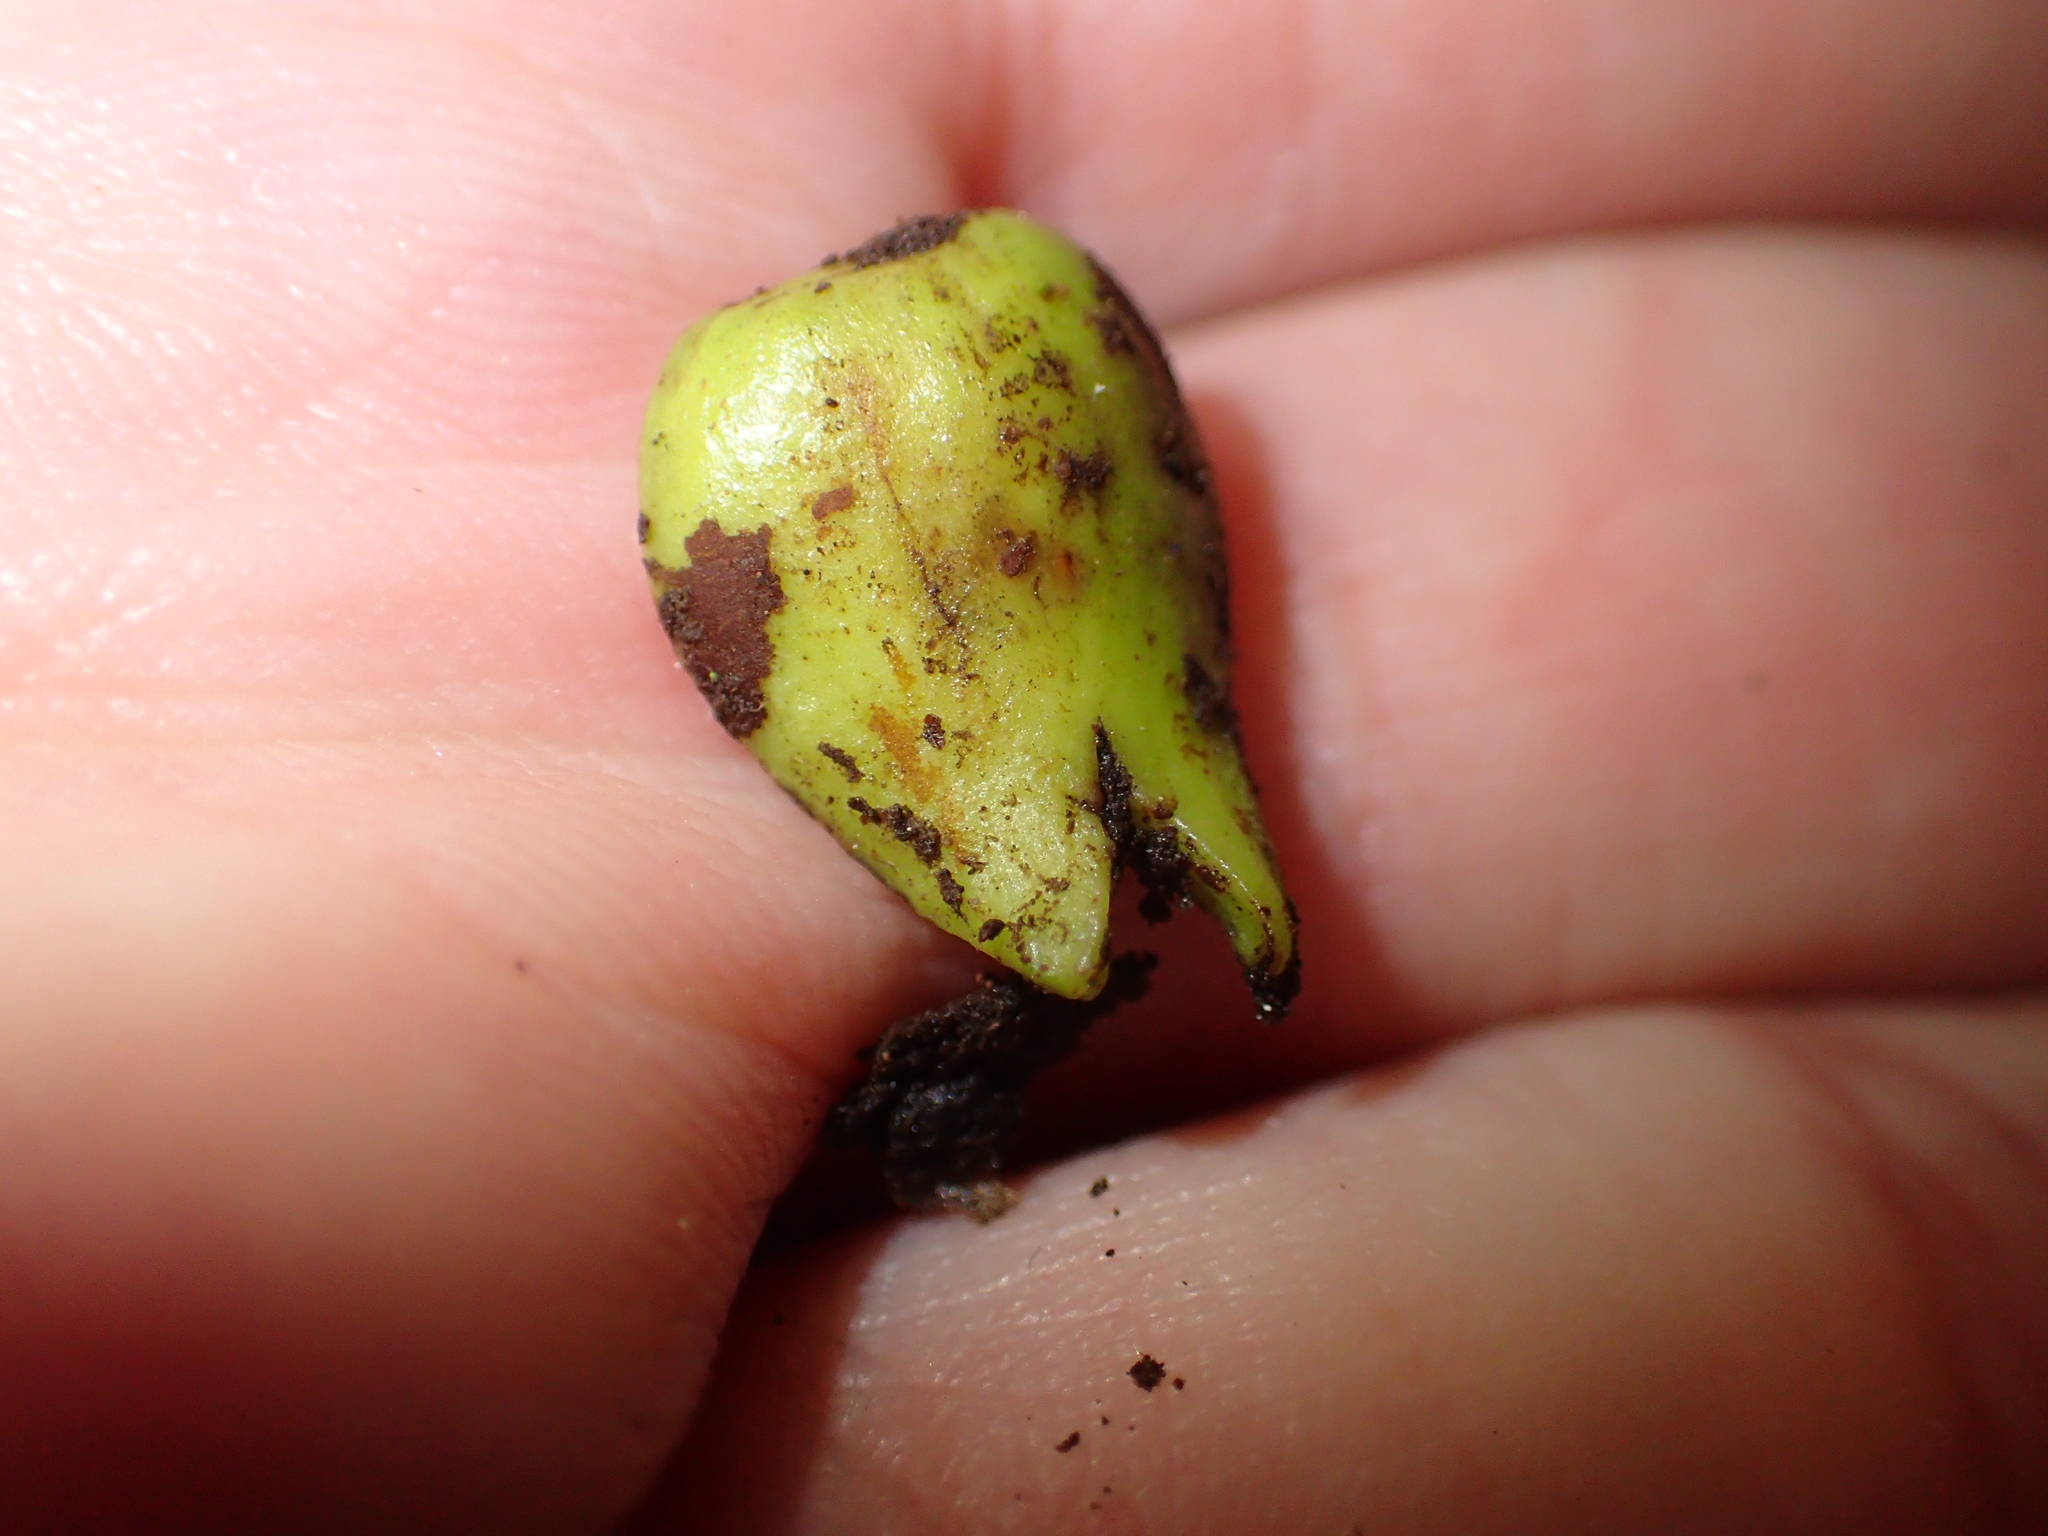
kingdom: Plantae
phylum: Tracheophyta
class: Magnoliopsida
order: Sapindales
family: Meliaceae
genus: Didymocheton
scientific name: Didymocheton spectabilis
